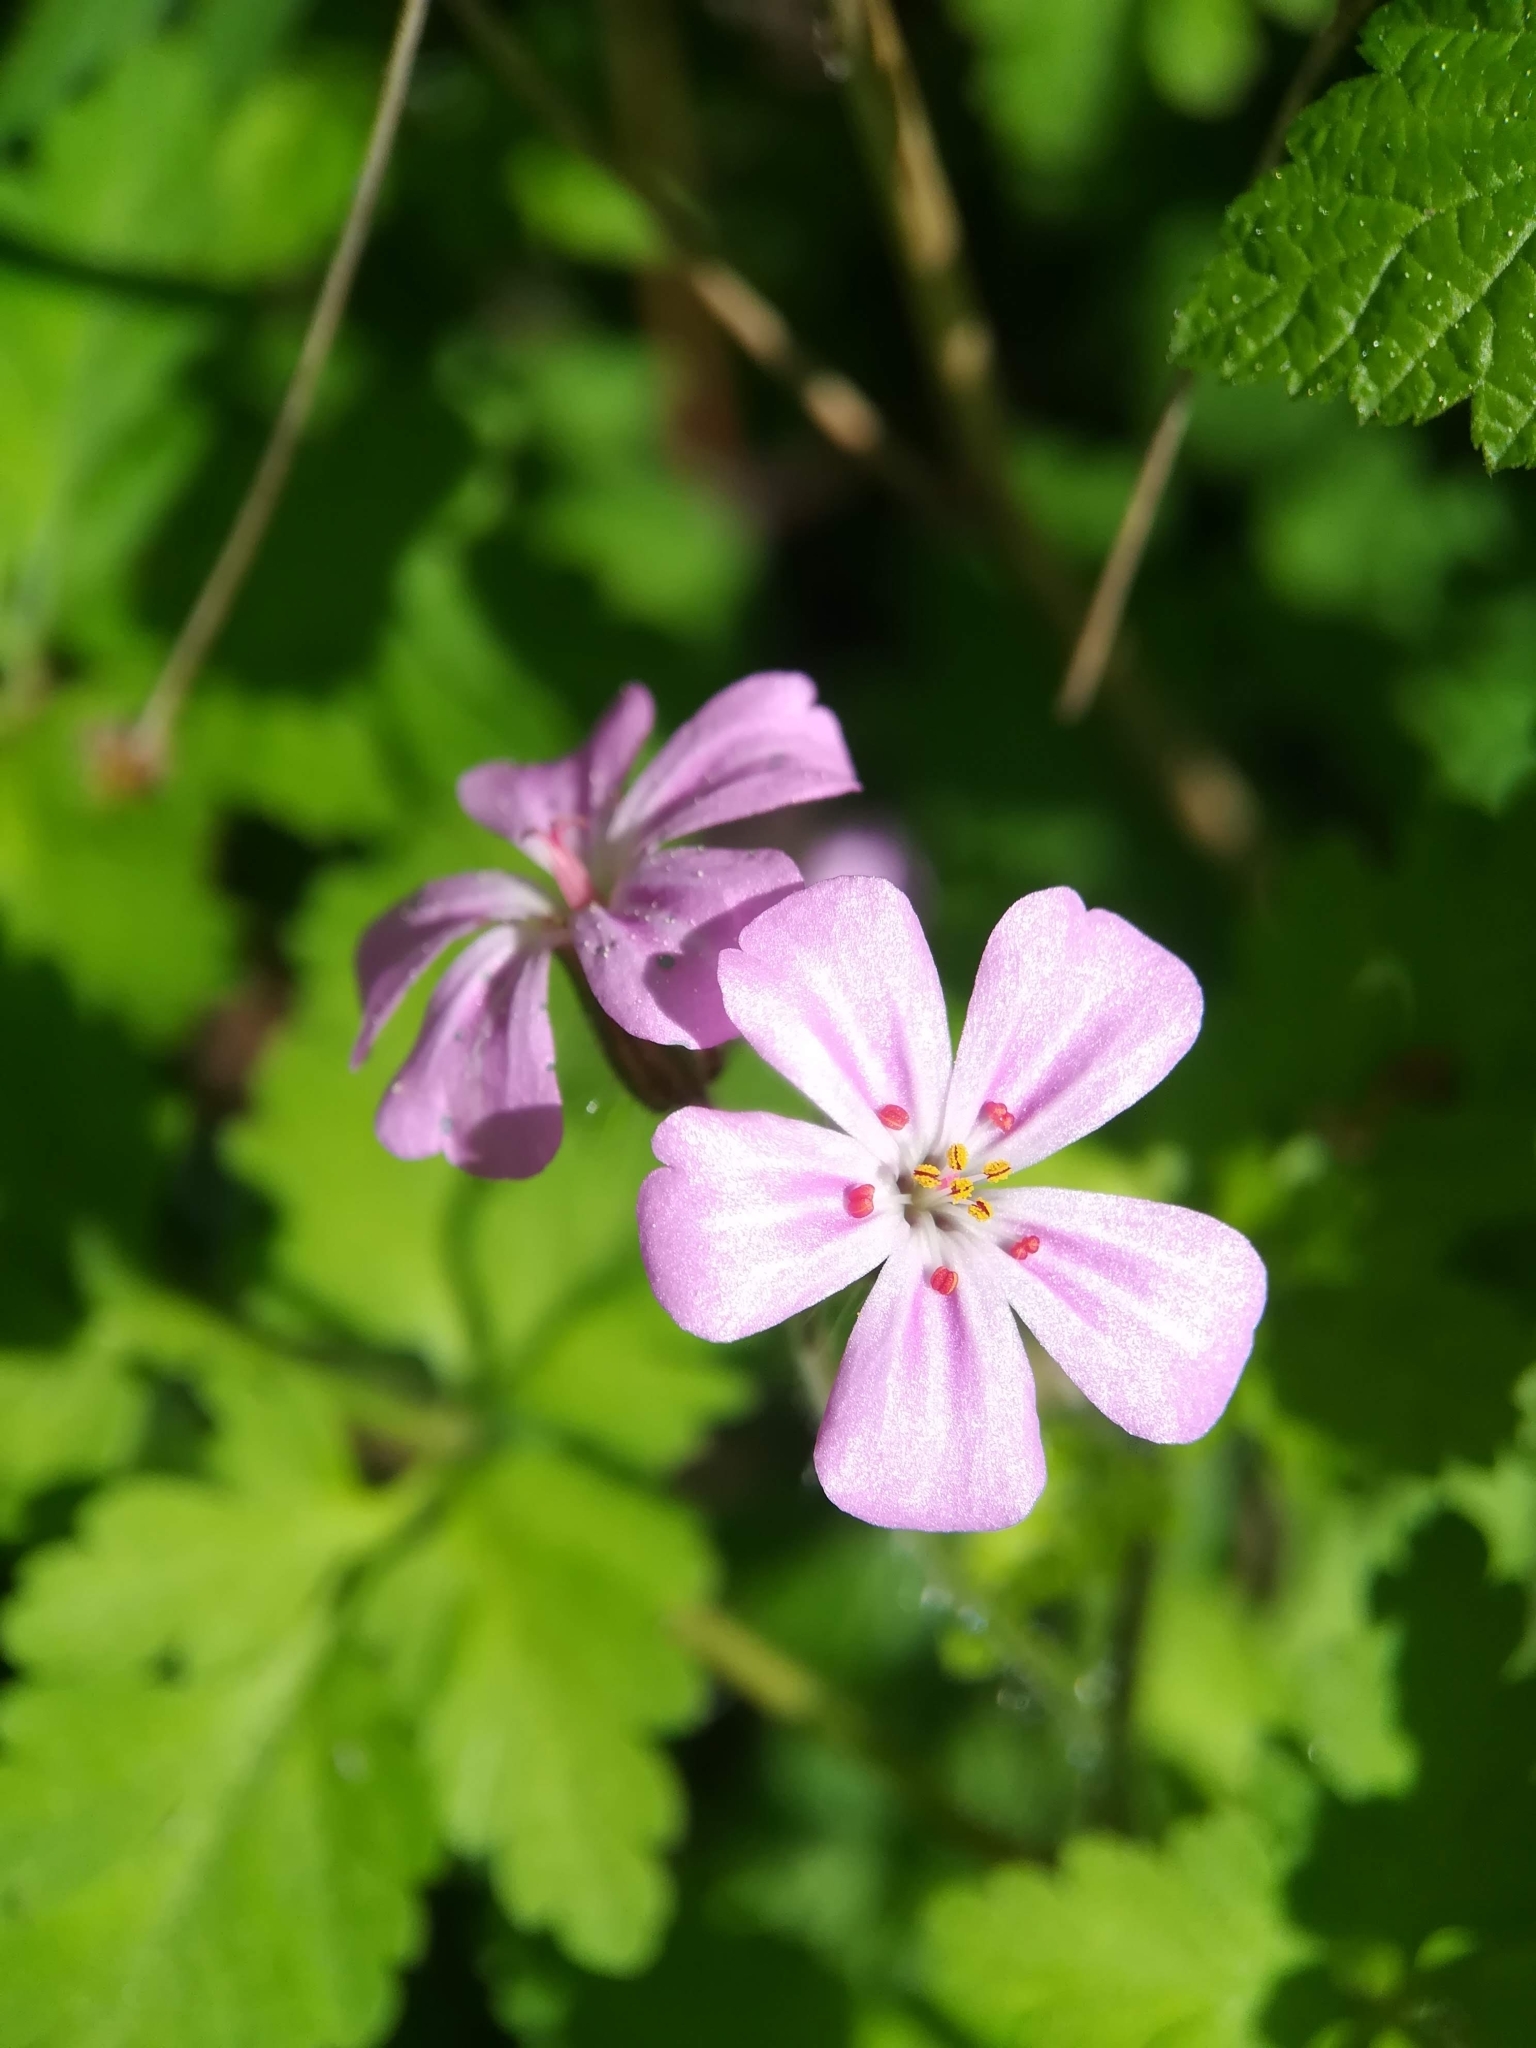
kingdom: Plantae
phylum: Tracheophyta
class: Magnoliopsida
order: Geraniales
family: Geraniaceae
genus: Geranium
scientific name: Geranium robertianum
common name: Herb-robert
